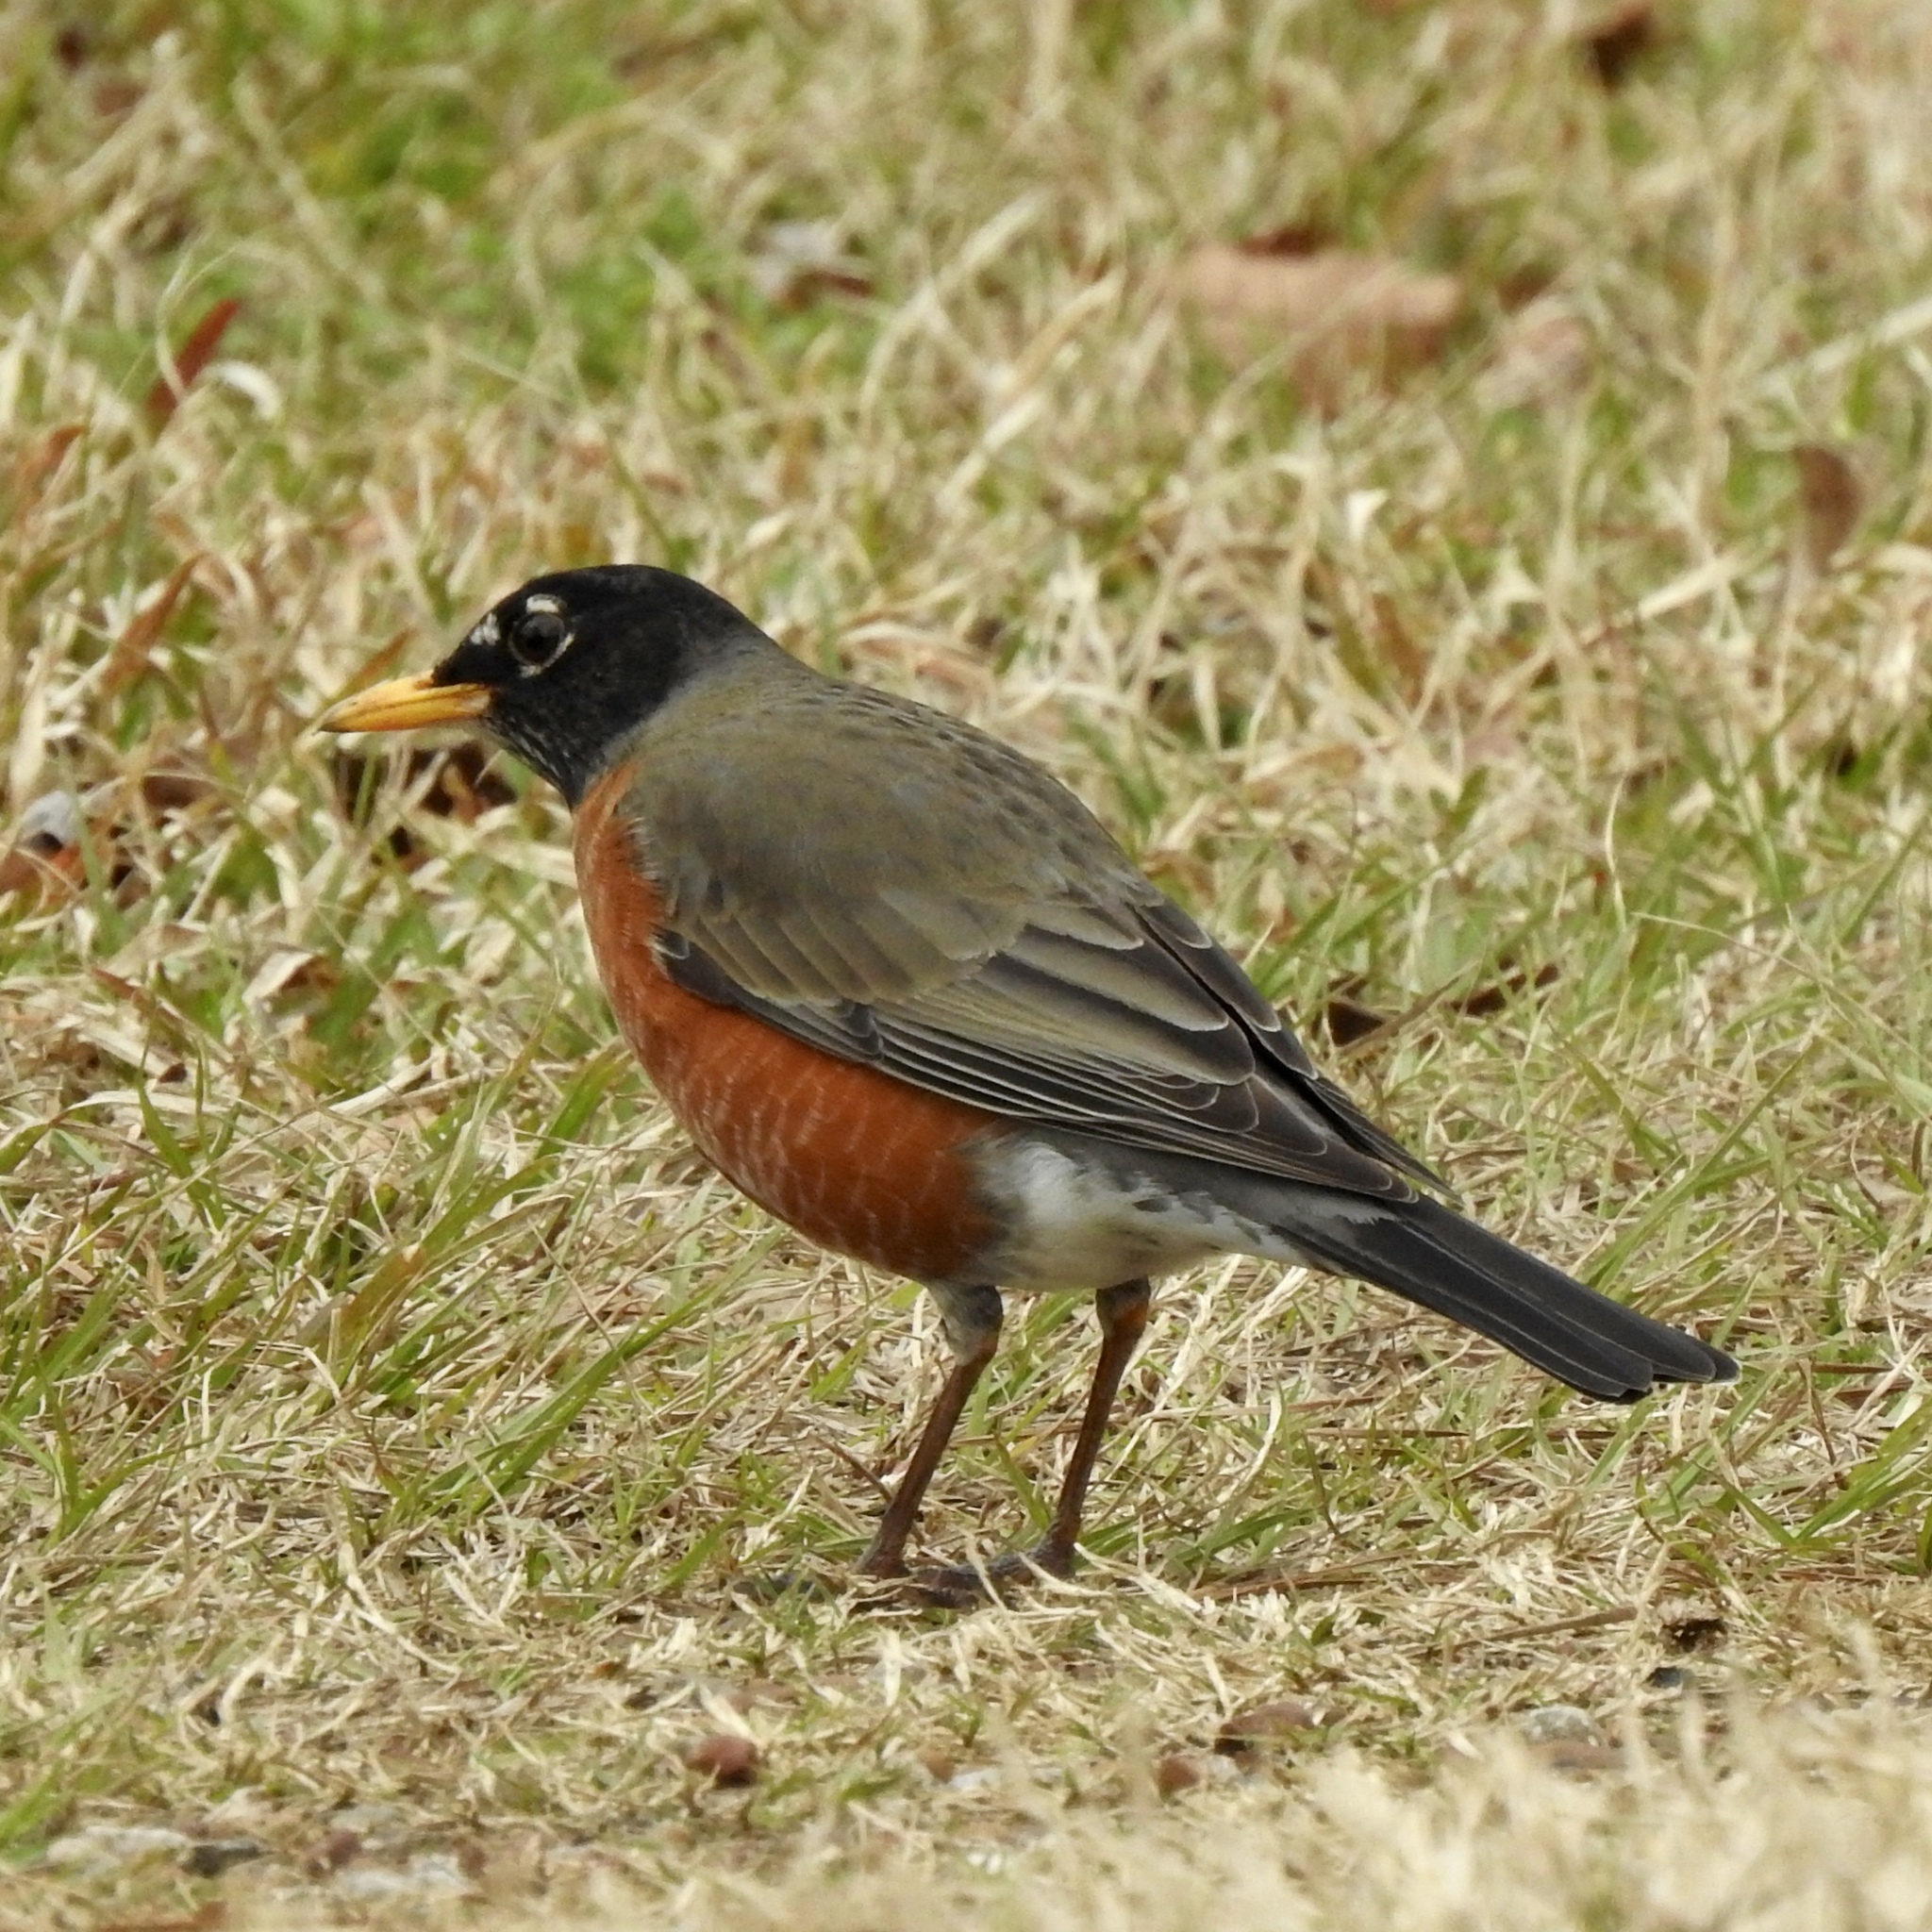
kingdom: Animalia
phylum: Chordata
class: Aves
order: Passeriformes
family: Turdidae
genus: Turdus
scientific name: Turdus migratorius
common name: American robin
